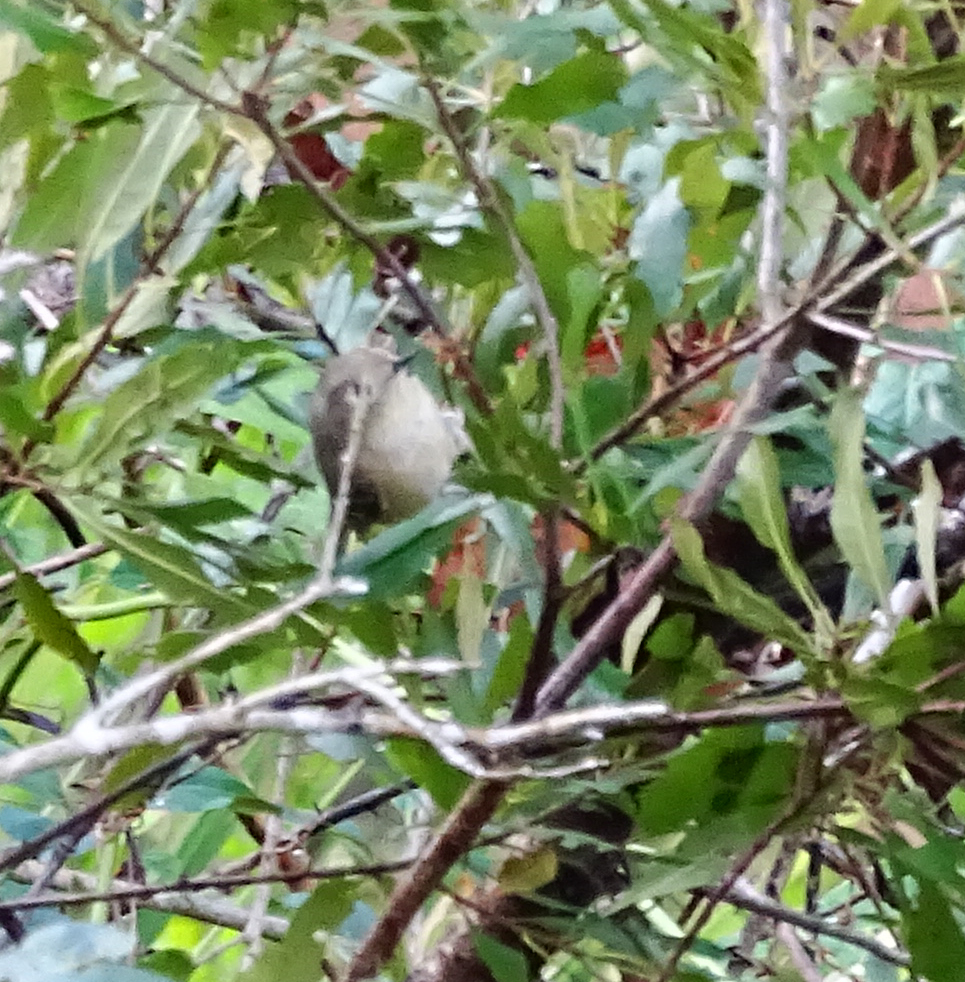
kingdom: Animalia
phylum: Chordata
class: Aves
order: Passeriformes
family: Regulidae
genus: Regulus
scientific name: Regulus calendula
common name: Ruby-crowned kinglet
